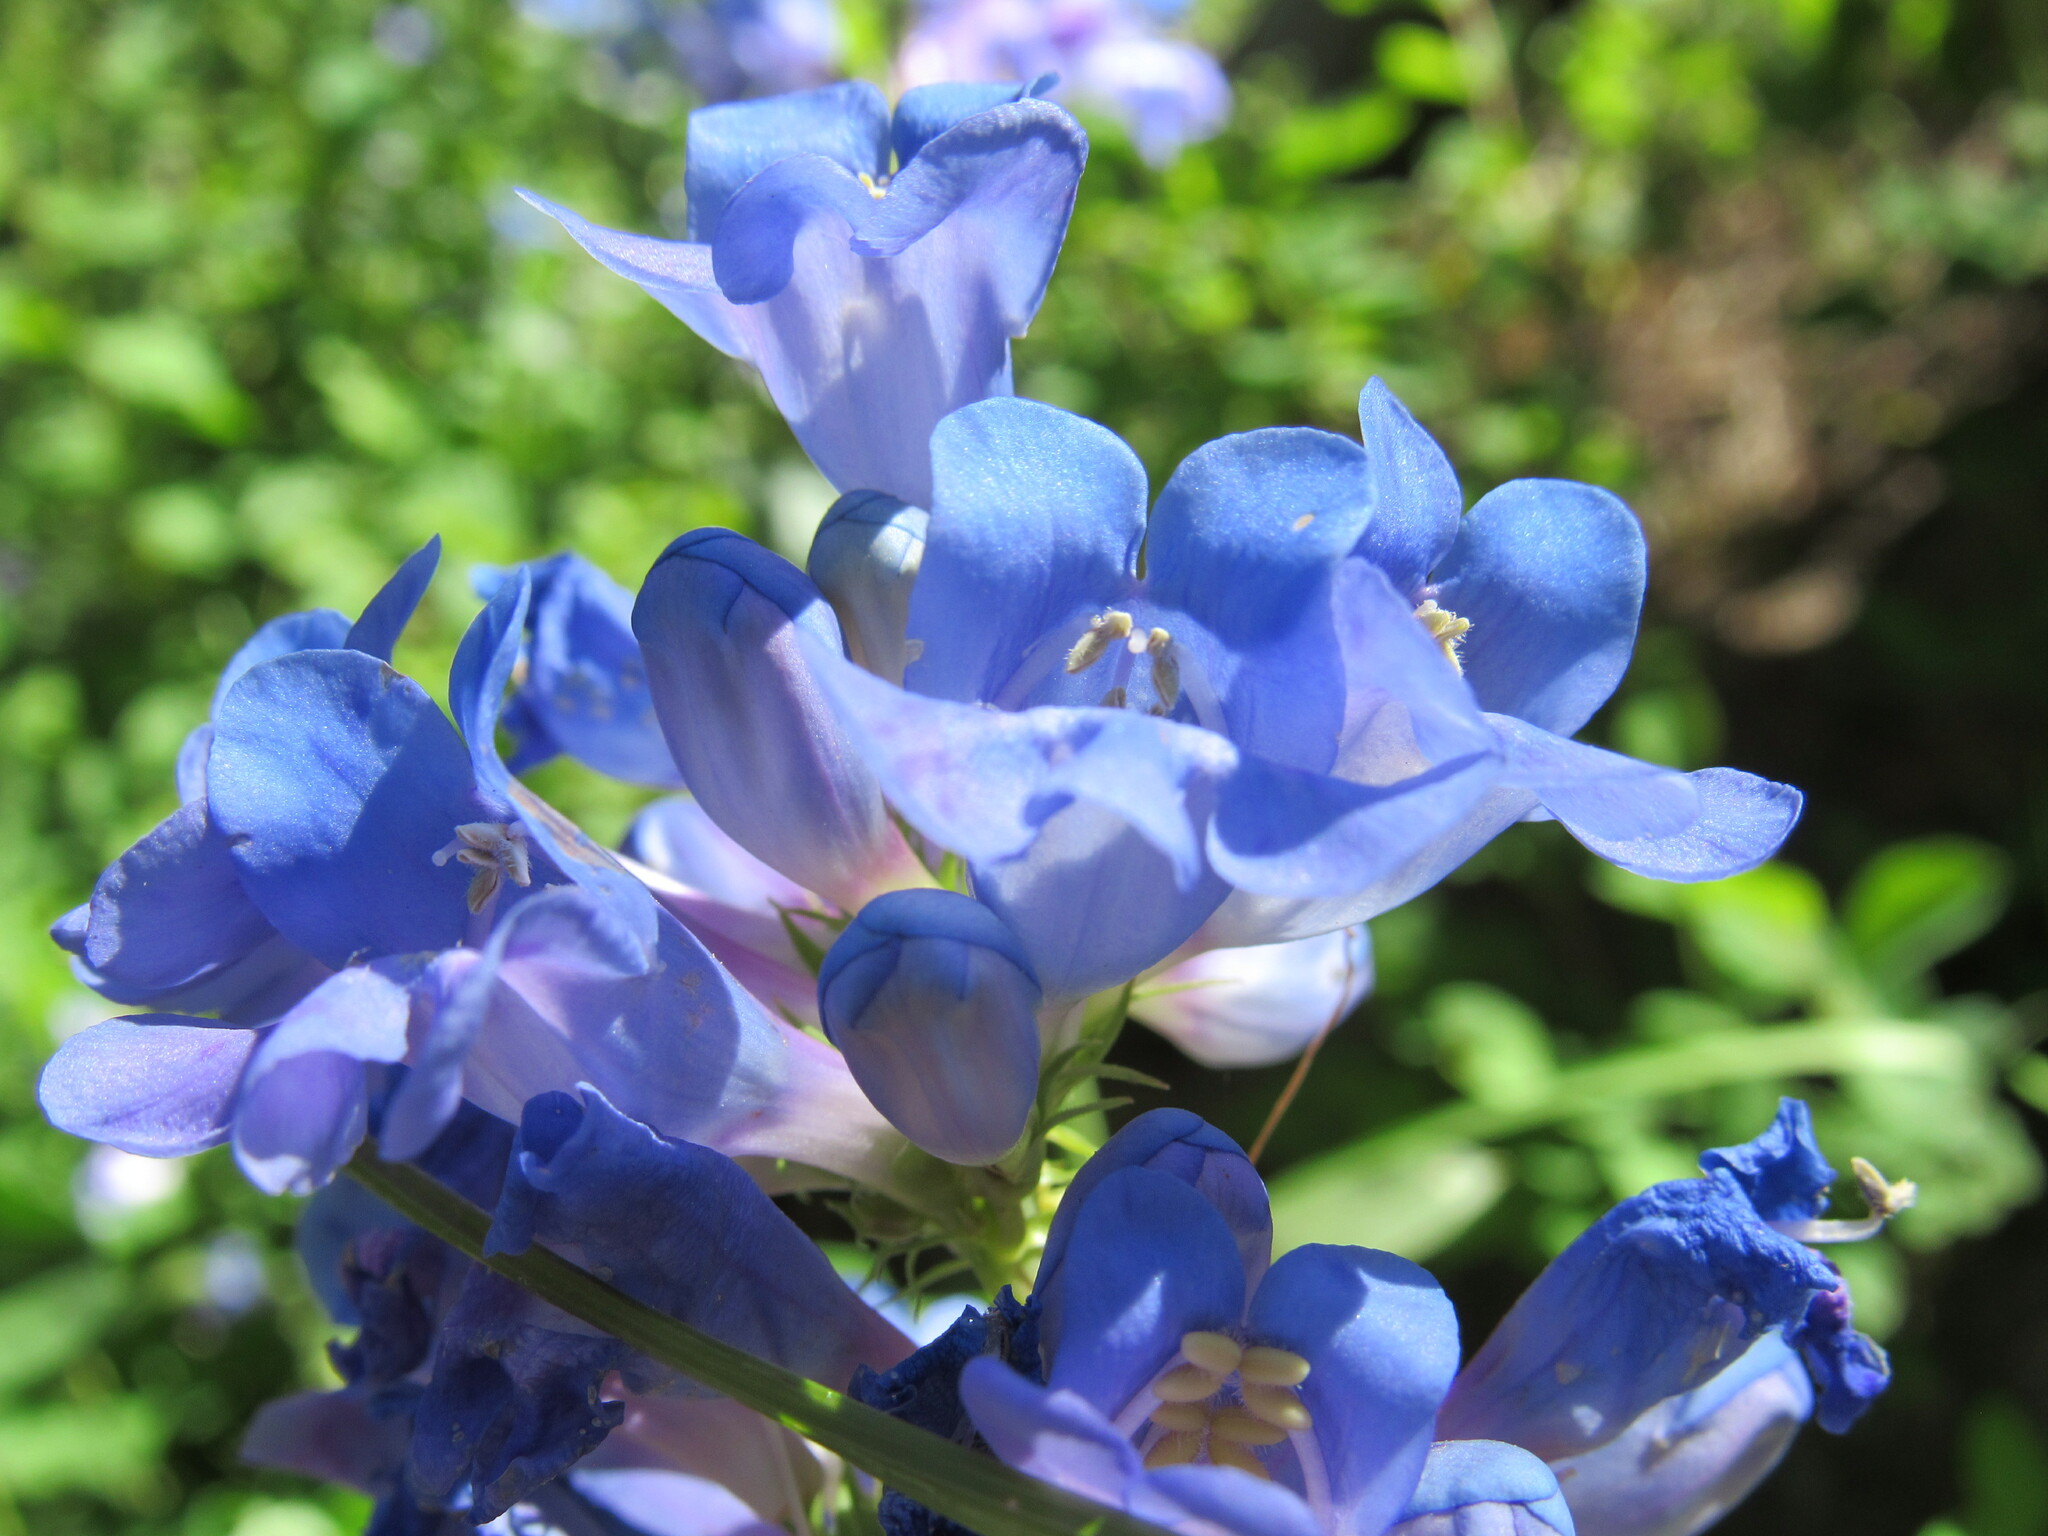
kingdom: Plantae
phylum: Tracheophyta
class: Magnoliopsida
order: Lamiales
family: Plantaginaceae
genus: Penstemon
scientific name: Penstemon cyananthus
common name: Wasatch penstemon
